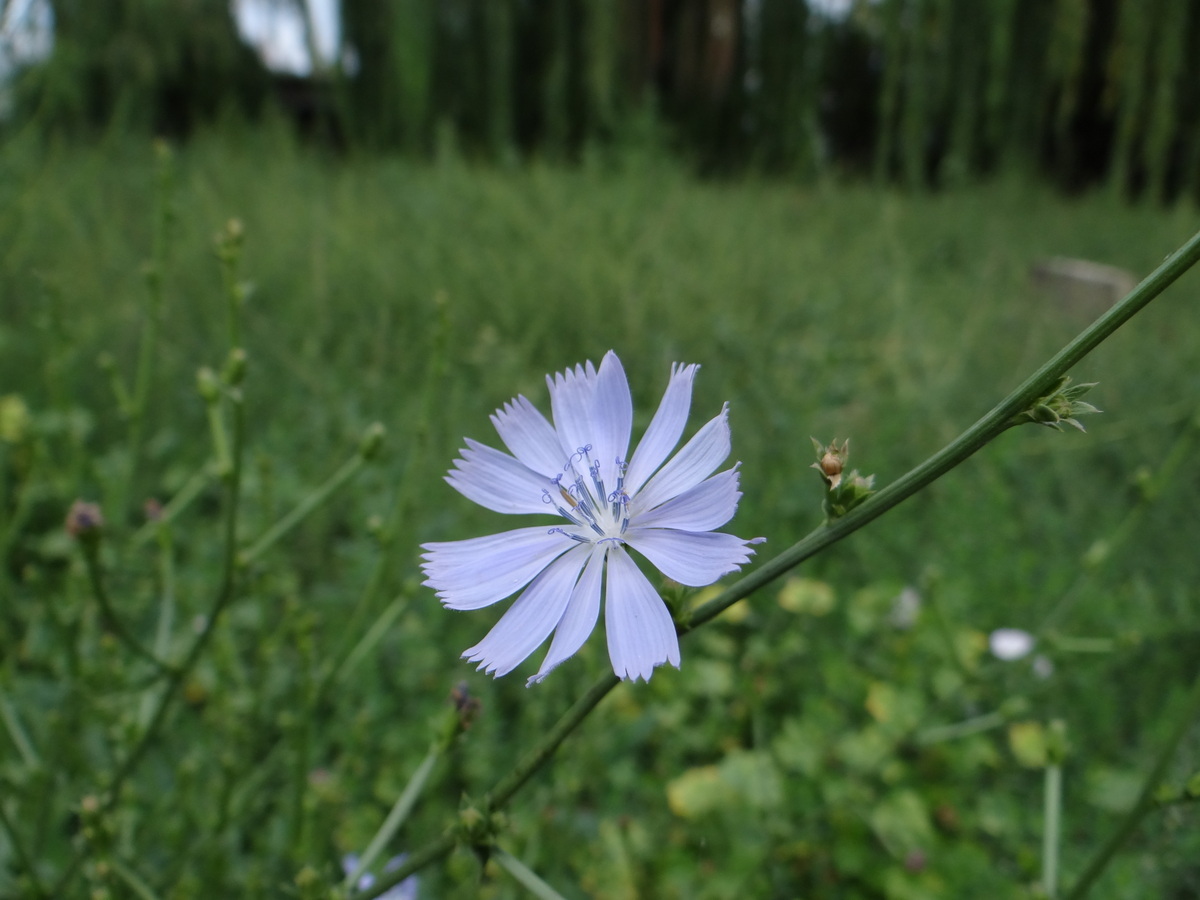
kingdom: Plantae
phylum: Tracheophyta
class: Magnoliopsida
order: Asterales
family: Asteraceae
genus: Cichorium
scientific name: Cichorium intybus
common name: Chicory
